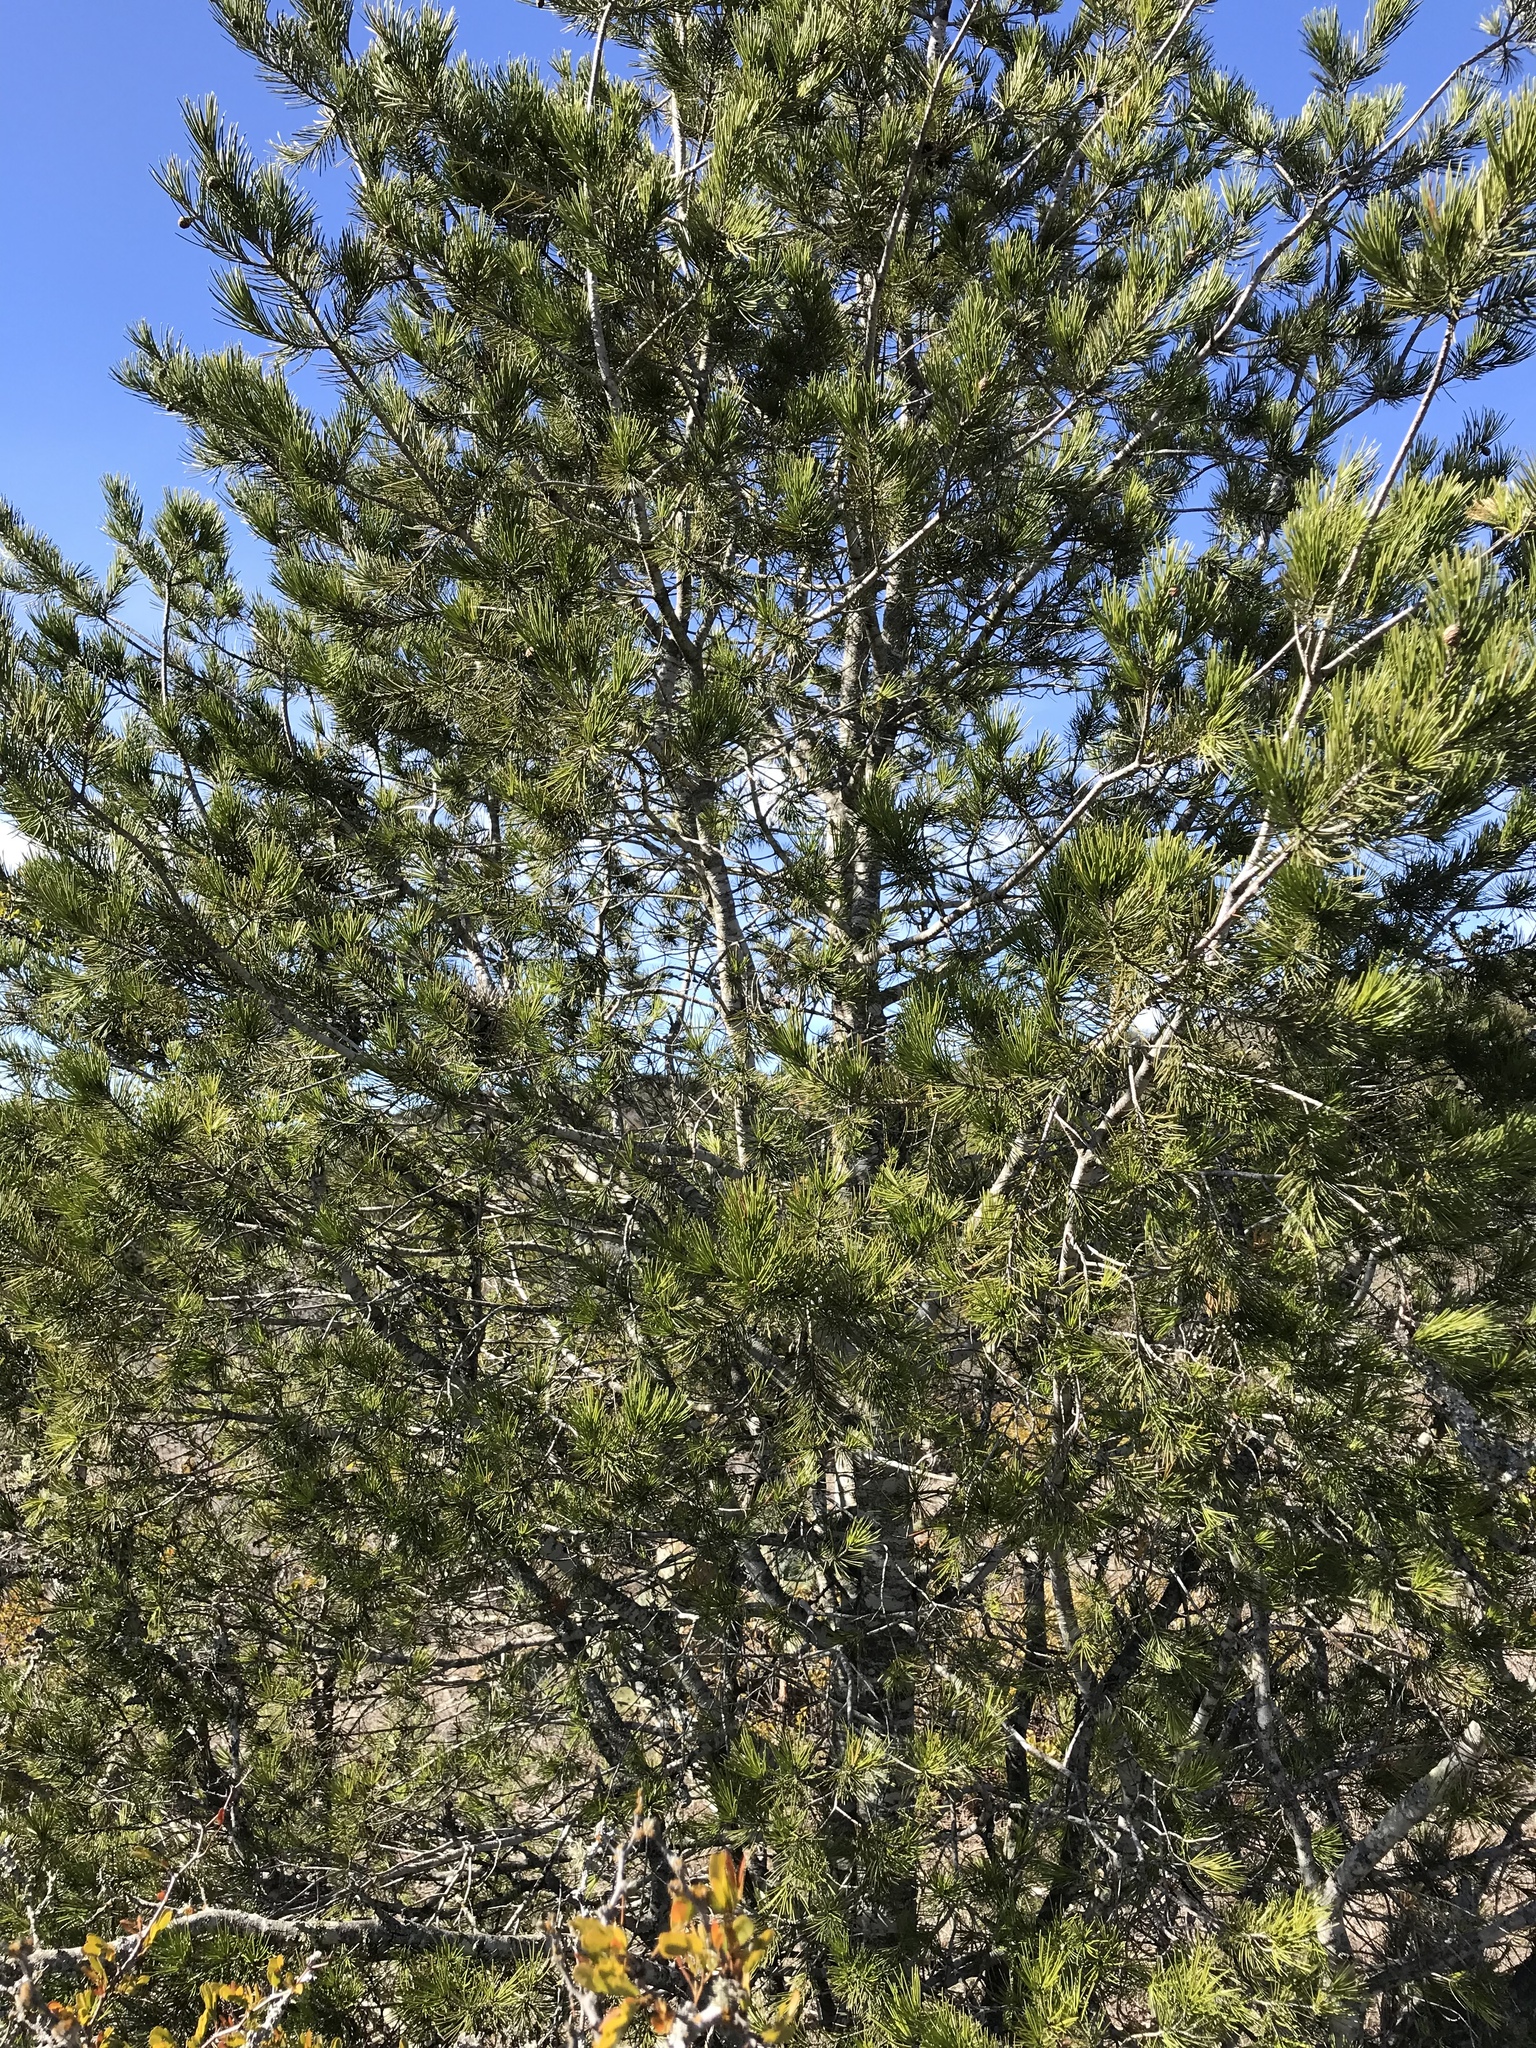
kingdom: Plantae
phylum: Tracheophyta
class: Pinopsida
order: Pinales
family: Pinaceae
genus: Pinus
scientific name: Pinus remota
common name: Nut pine
